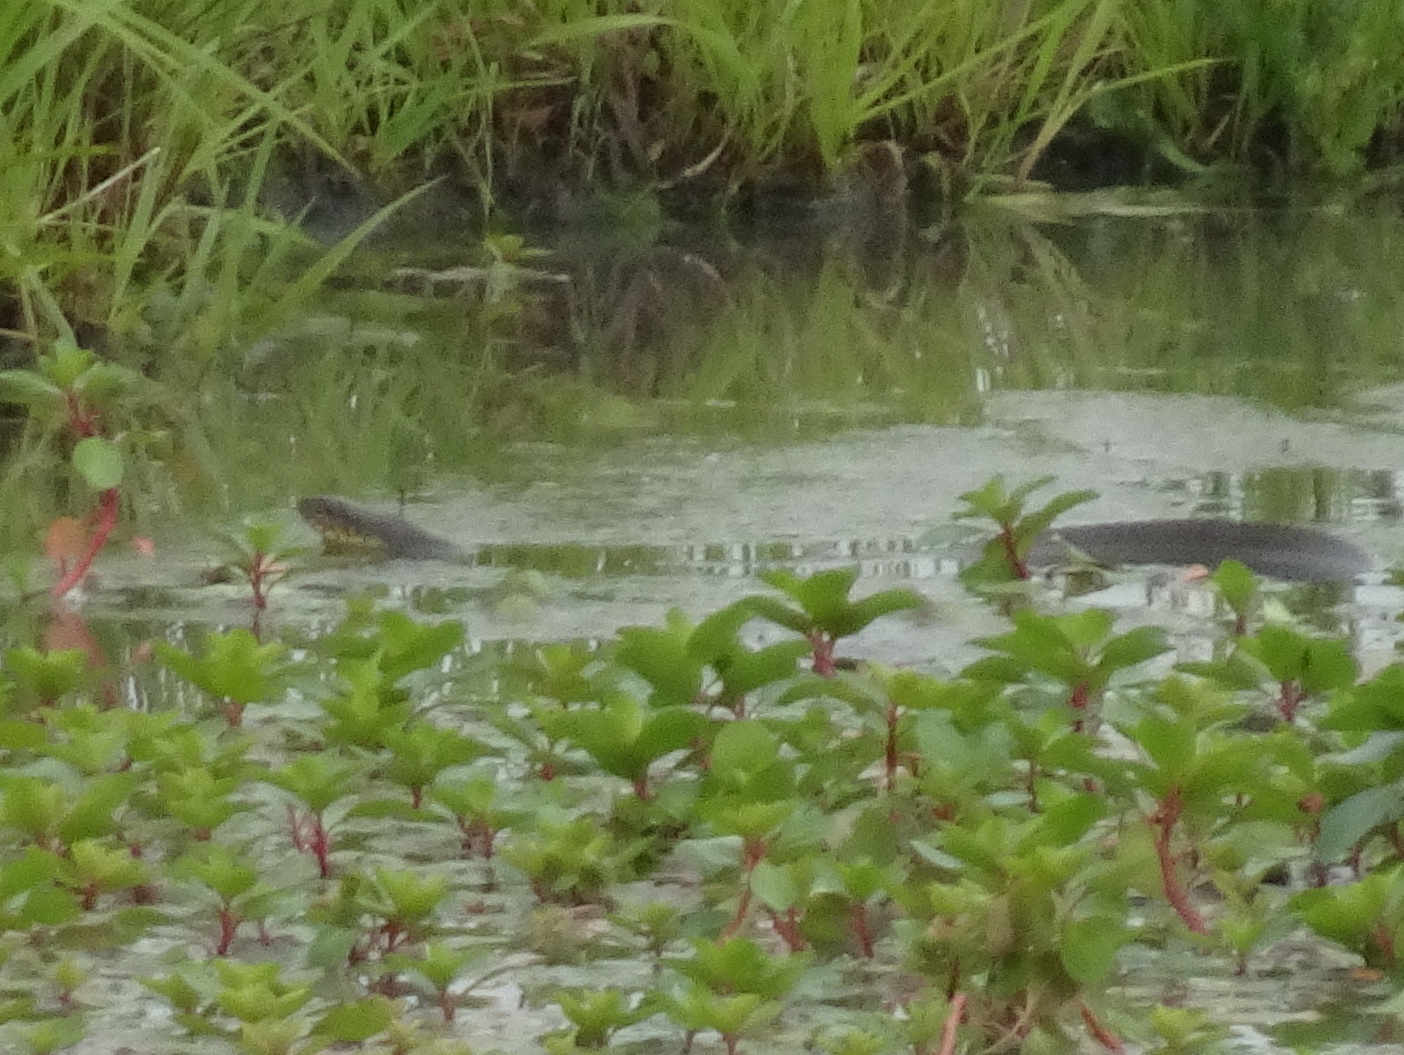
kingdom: Animalia
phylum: Chordata
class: Squamata
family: Colubridae
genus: Nerodia
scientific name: Nerodia
